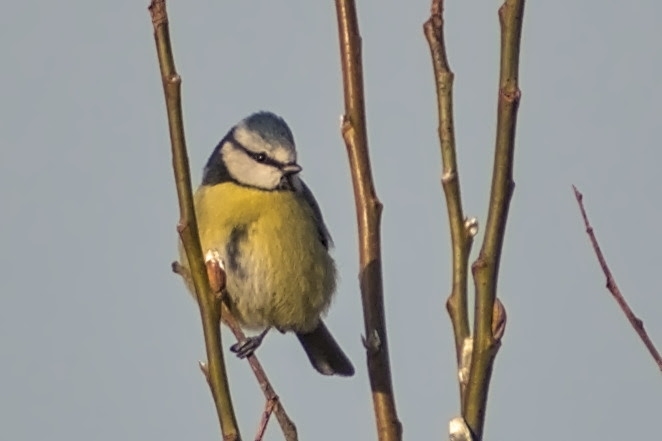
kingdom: Animalia
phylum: Chordata
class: Aves
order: Passeriformes
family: Paridae
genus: Cyanistes
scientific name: Cyanistes caeruleus
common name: Eurasian blue tit
